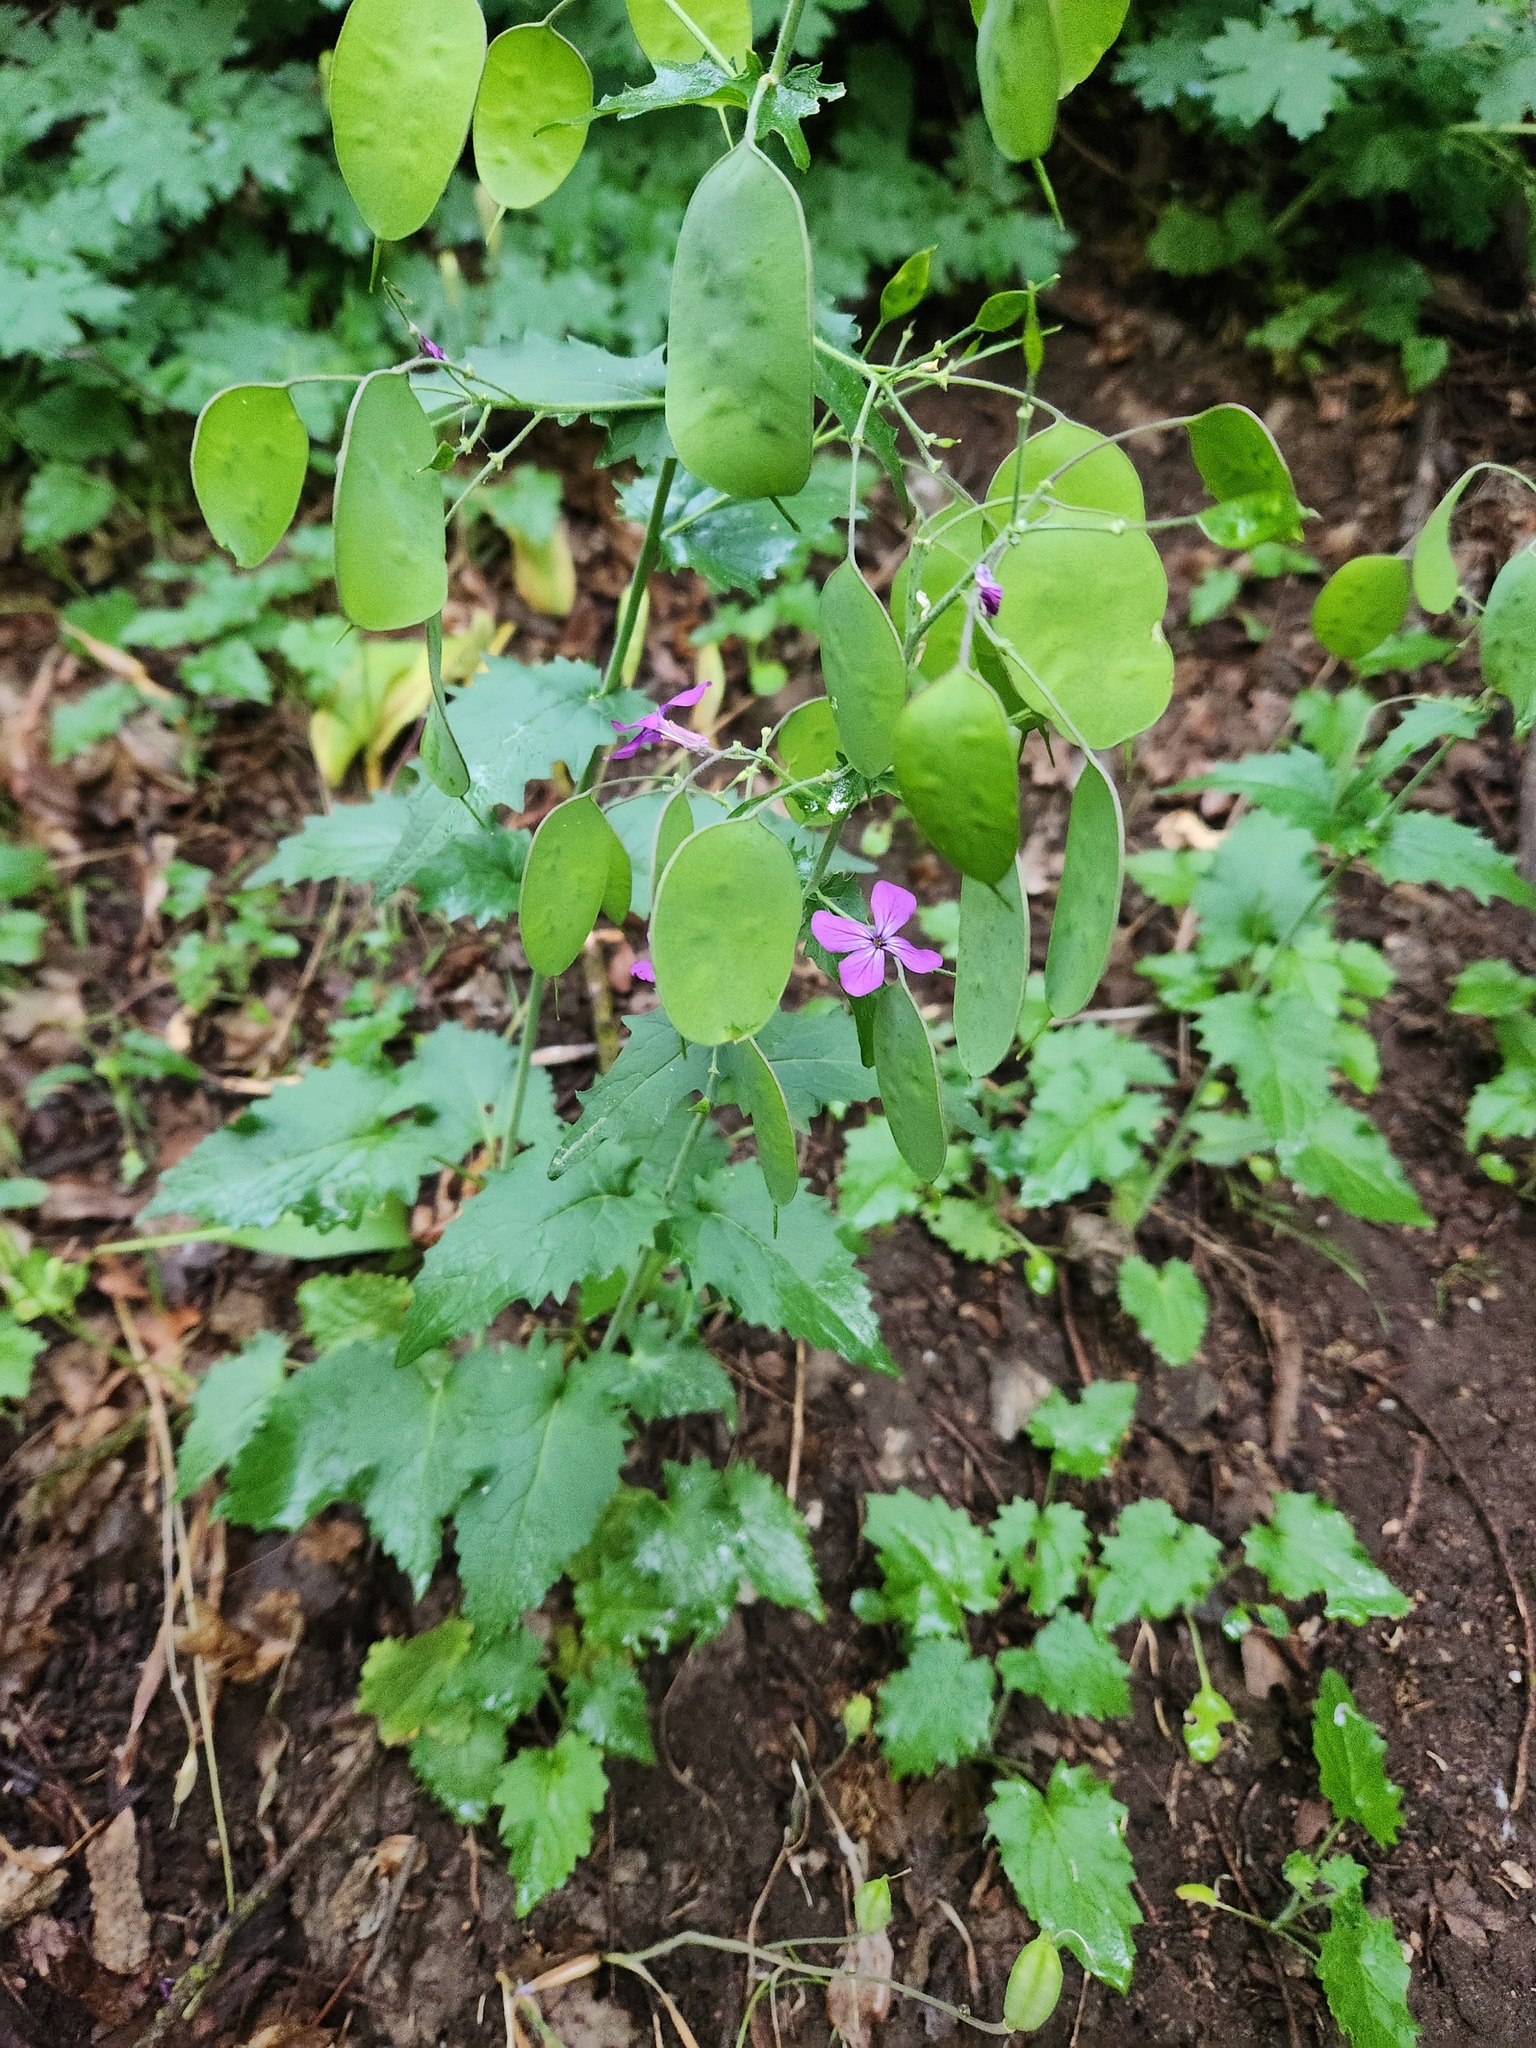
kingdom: Plantae
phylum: Tracheophyta
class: Magnoliopsida
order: Brassicales
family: Brassicaceae
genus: Lunaria
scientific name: Lunaria annua
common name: Honesty
